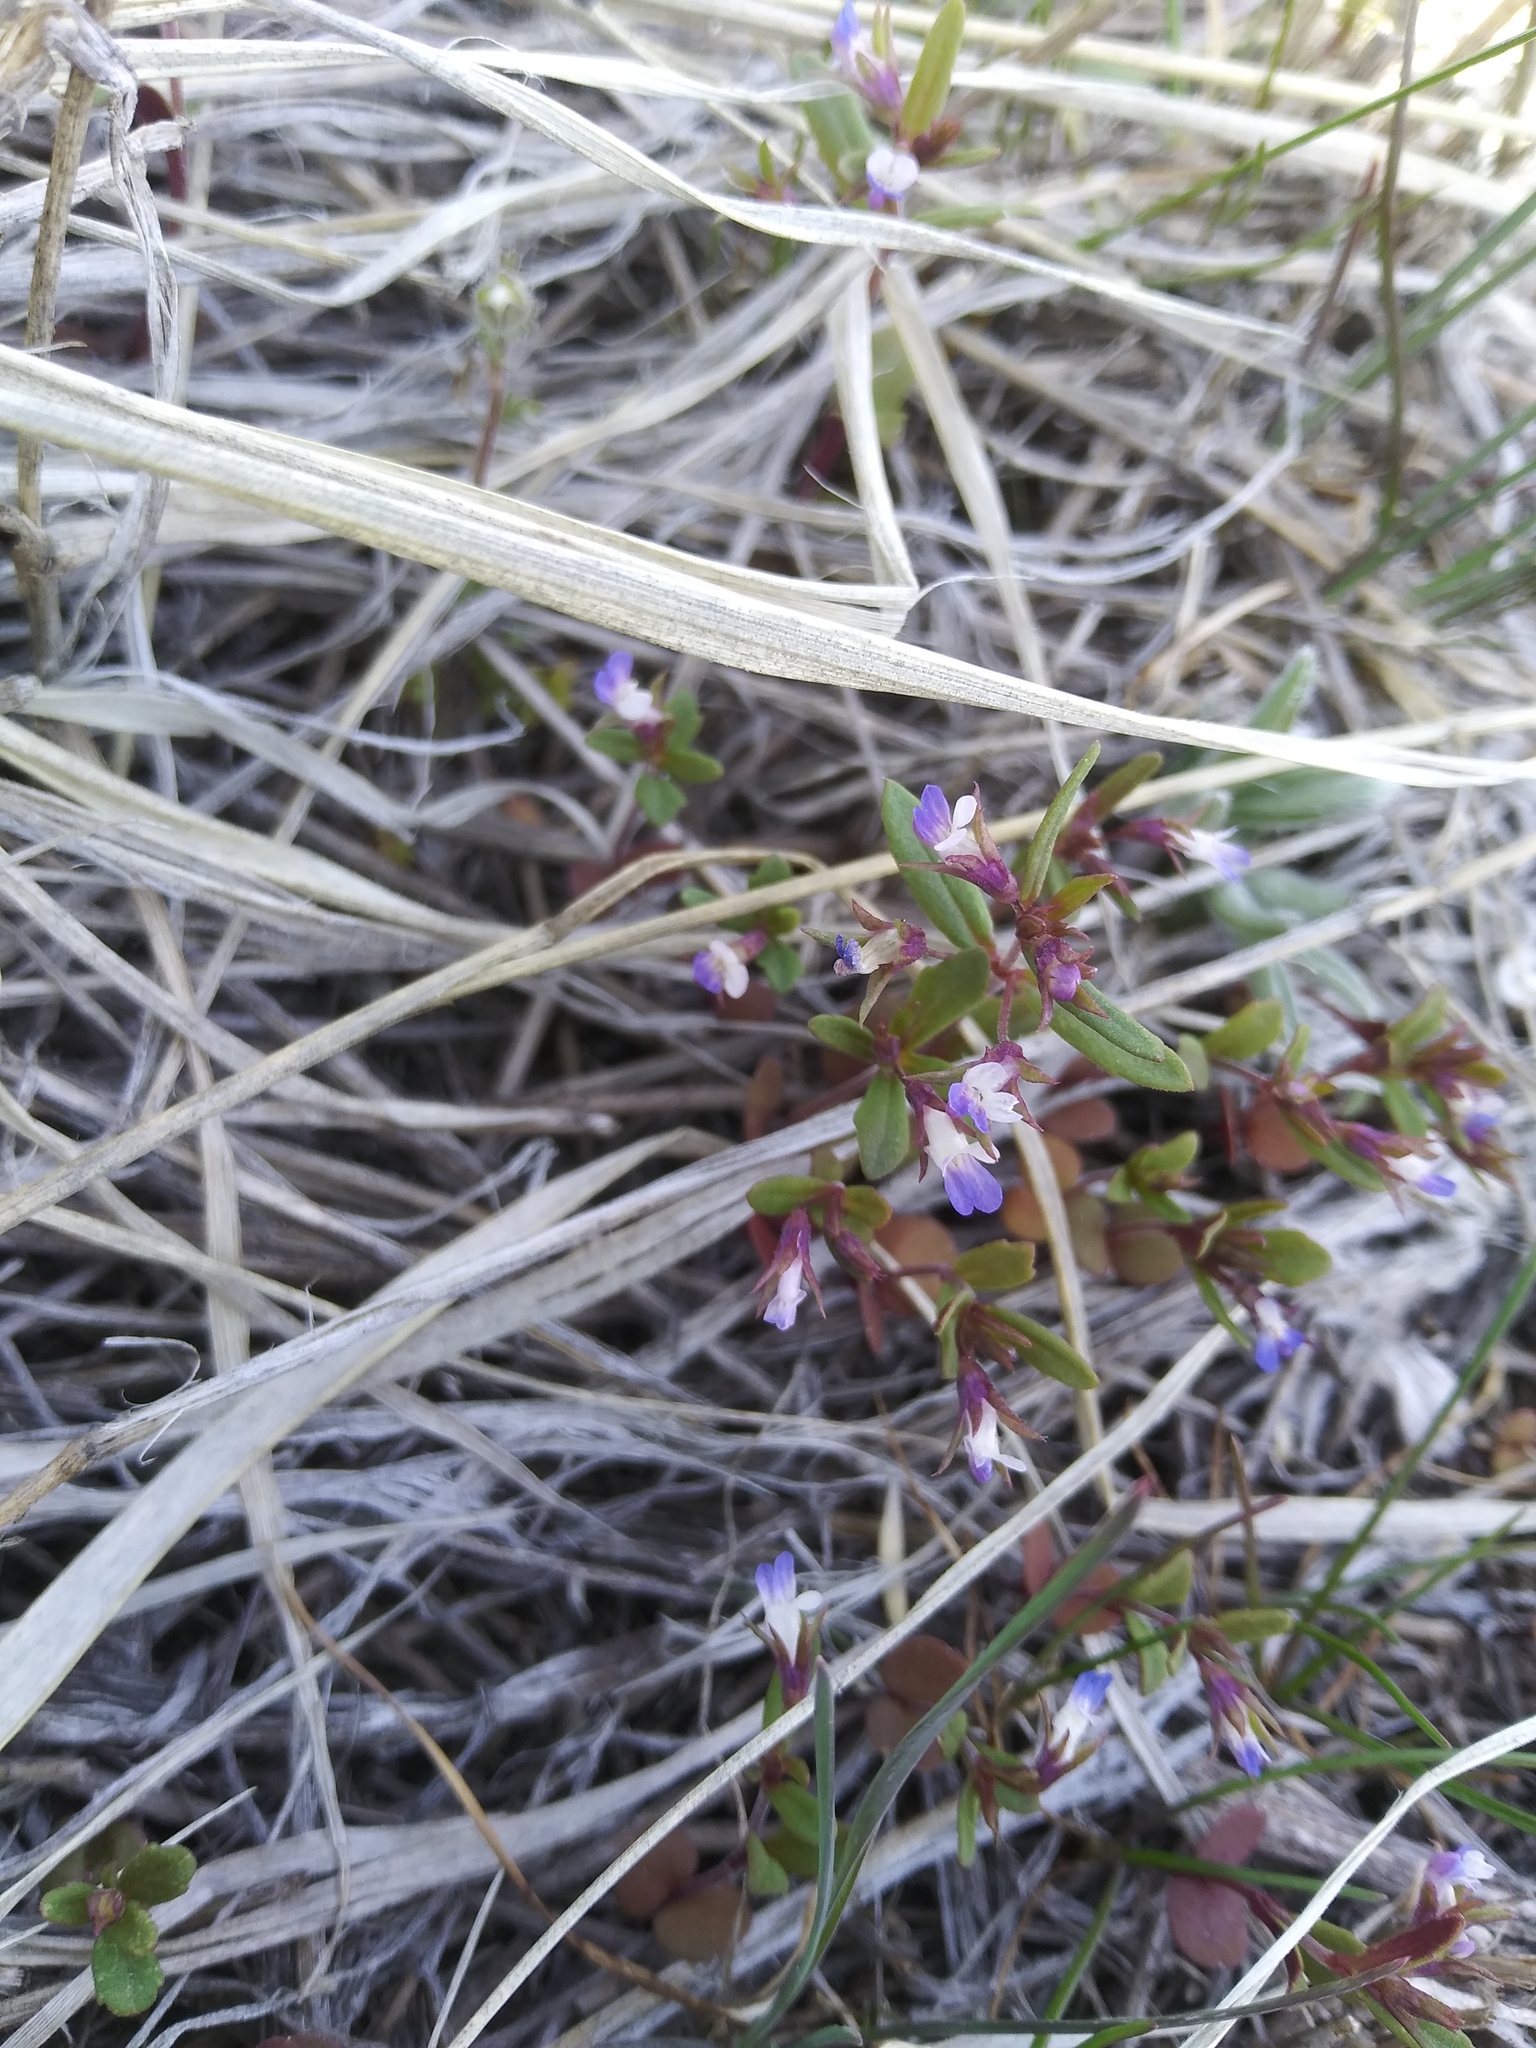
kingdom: Plantae
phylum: Tracheophyta
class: Magnoliopsida
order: Lamiales
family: Plantaginaceae
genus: Collinsia
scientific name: Collinsia parviflora
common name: Blue-lips
